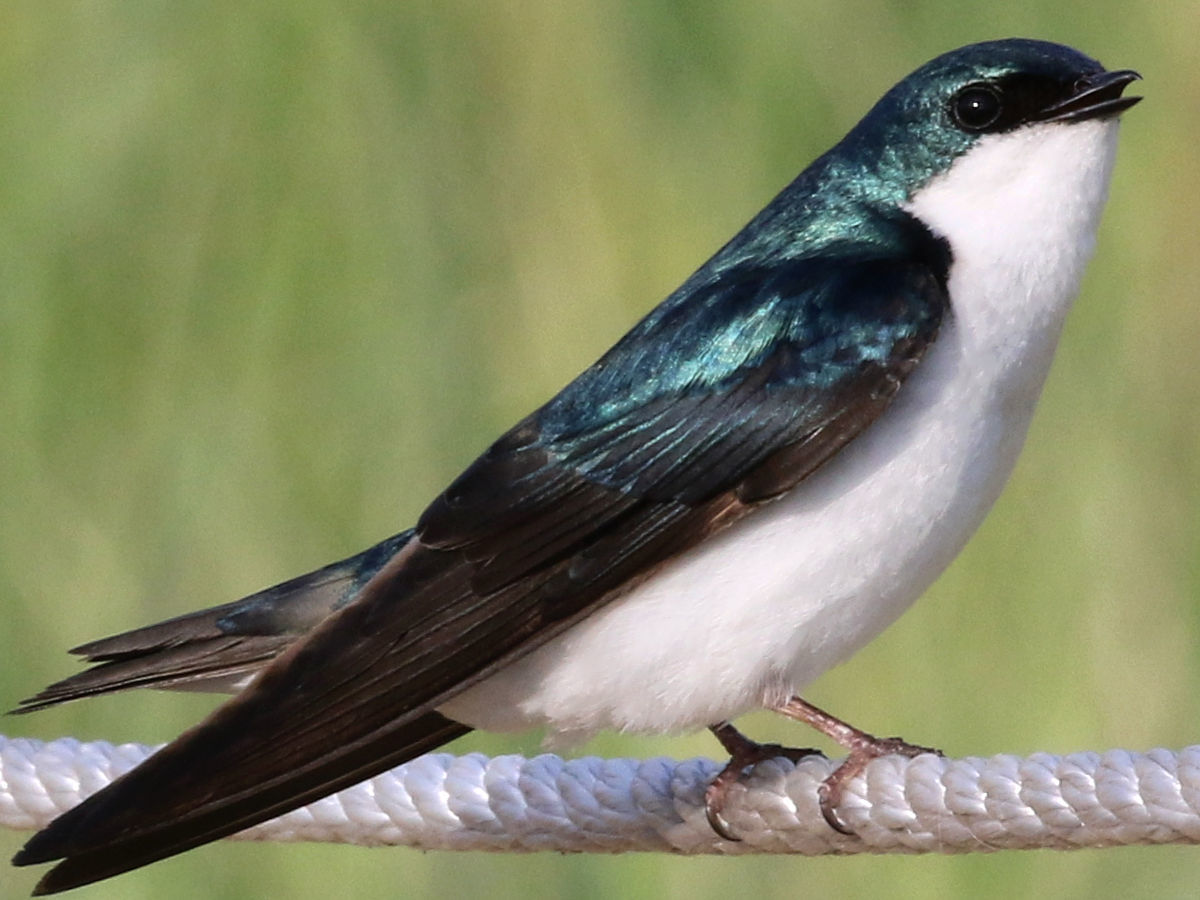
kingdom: Animalia
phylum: Chordata
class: Aves
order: Passeriformes
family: Hirundinidae
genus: Tachycineta
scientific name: Tachycineta bicolor
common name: Tree swallow
